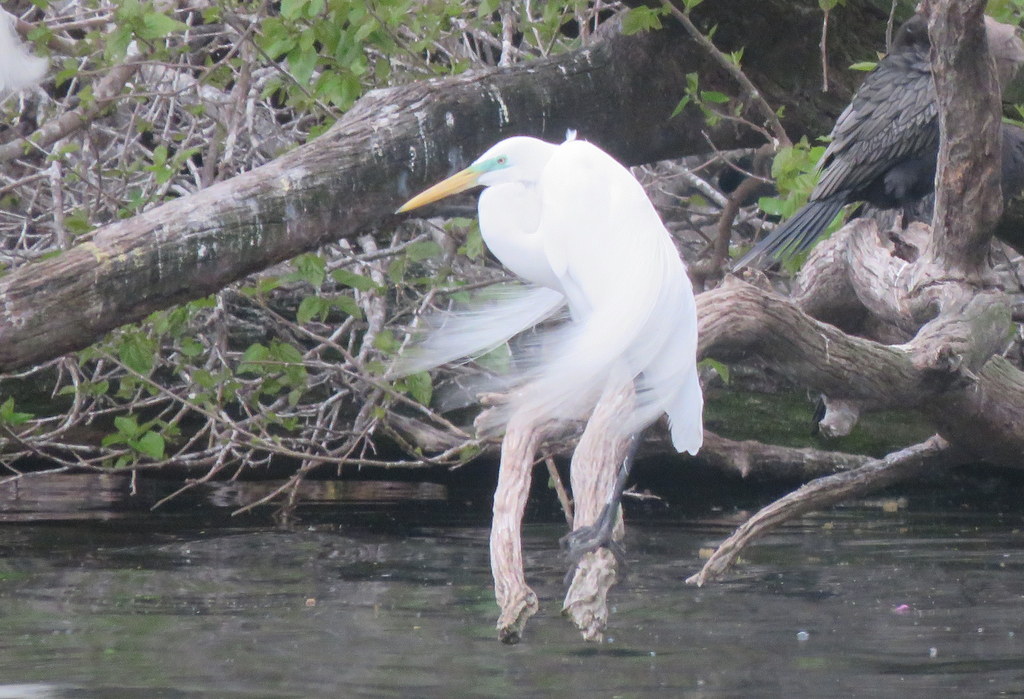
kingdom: Animalia
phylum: Chordata
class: Aves
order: Pelecaniformes
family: Ardeidae
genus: Ardea
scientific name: Ardea alba
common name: Great egret
